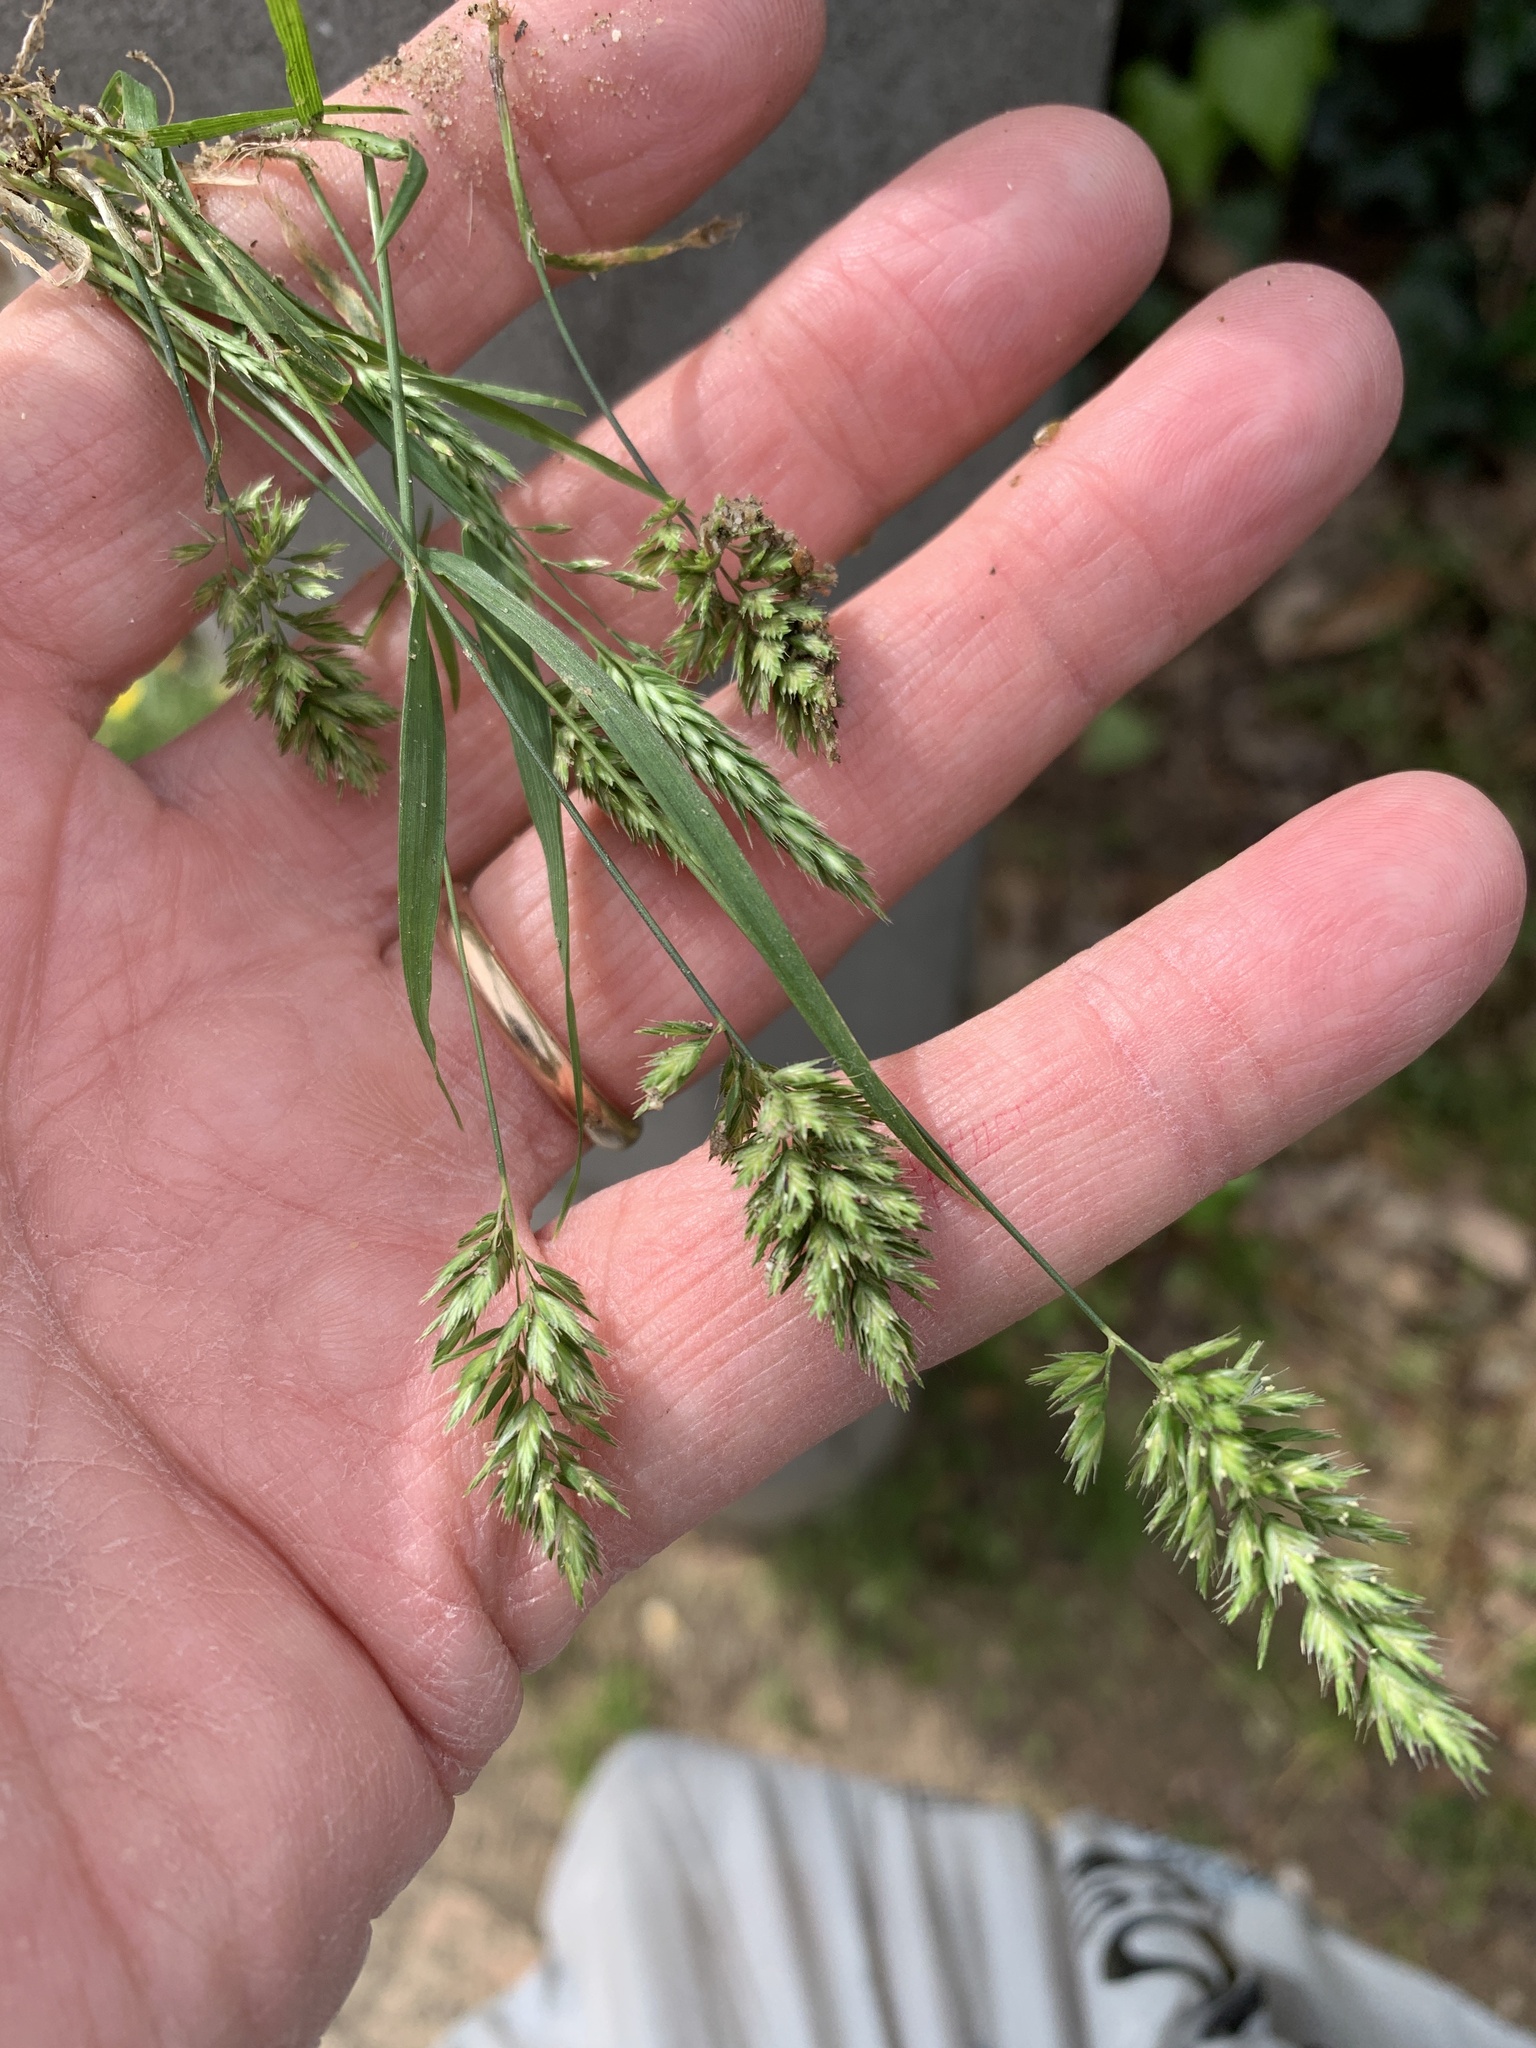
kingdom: Plantae
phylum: Tracheophyta
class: Liliopsida
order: Poales
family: Poaceae
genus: Rostraria
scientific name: Rostraria cristata
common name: Mediterranean hair-grass
